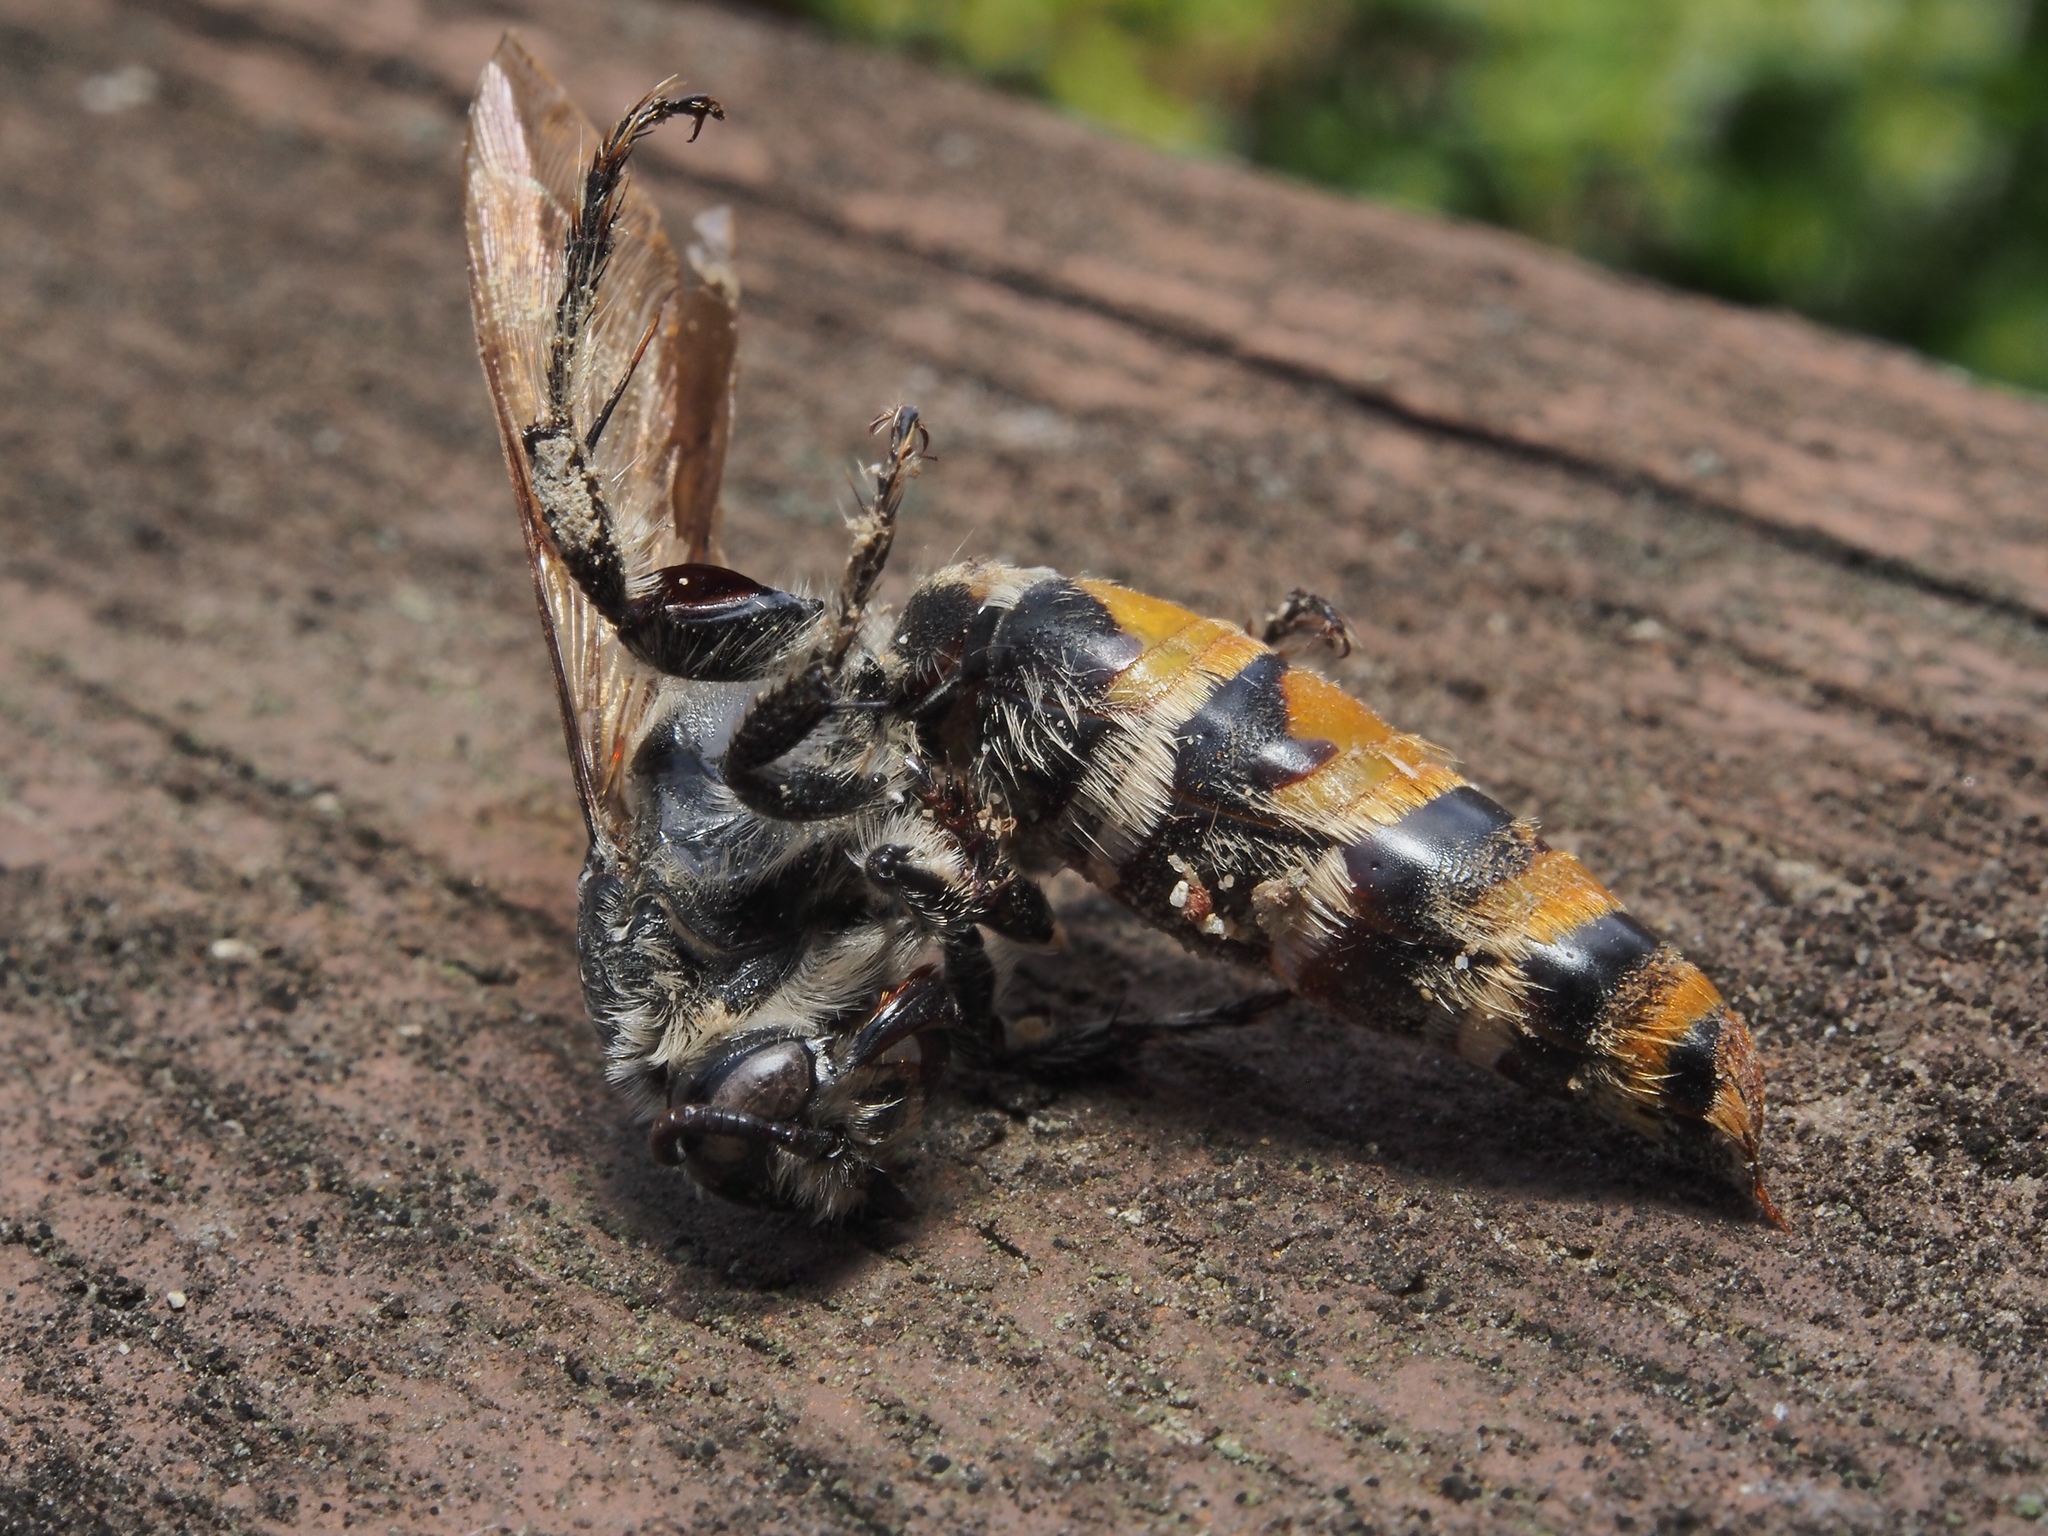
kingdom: Animalia
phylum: Arthropoda
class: Insecta
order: Hymenoptera
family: Scoliidae
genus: Dielis
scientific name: Dielis tolteca
